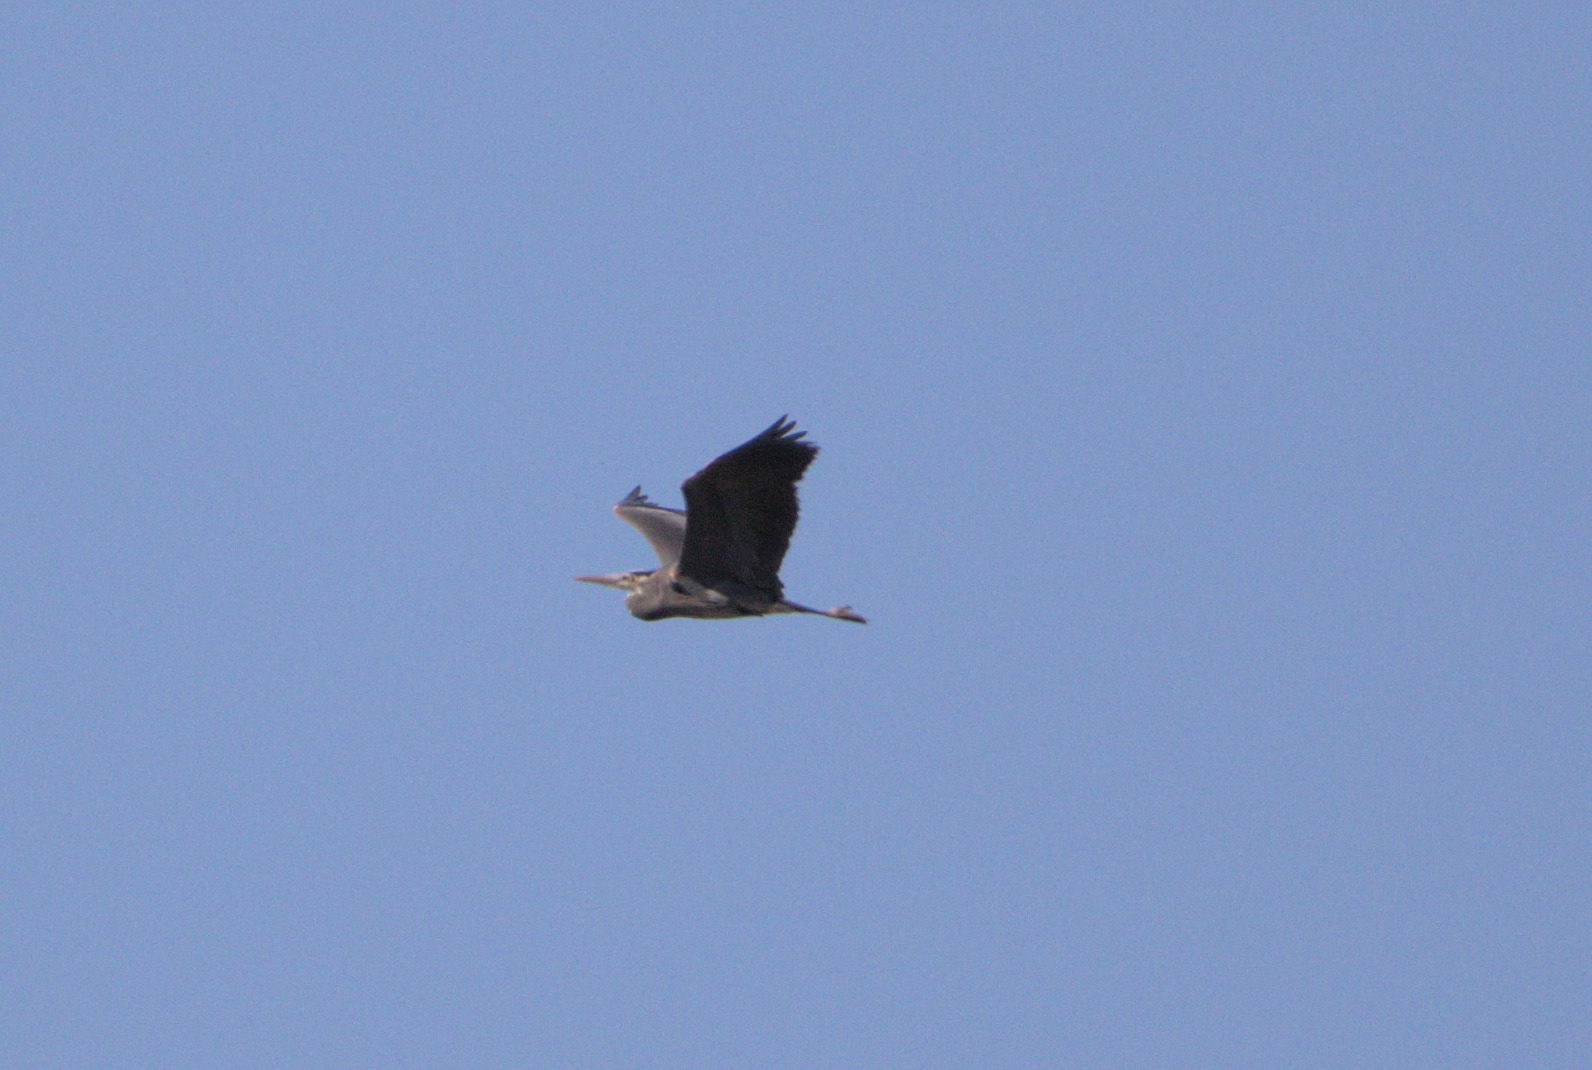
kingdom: Animalia
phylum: Chordata
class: Aves
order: Pelecaniformes
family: Ardeidae
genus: Ardea
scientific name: Ardea herodias
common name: Great blue heron
